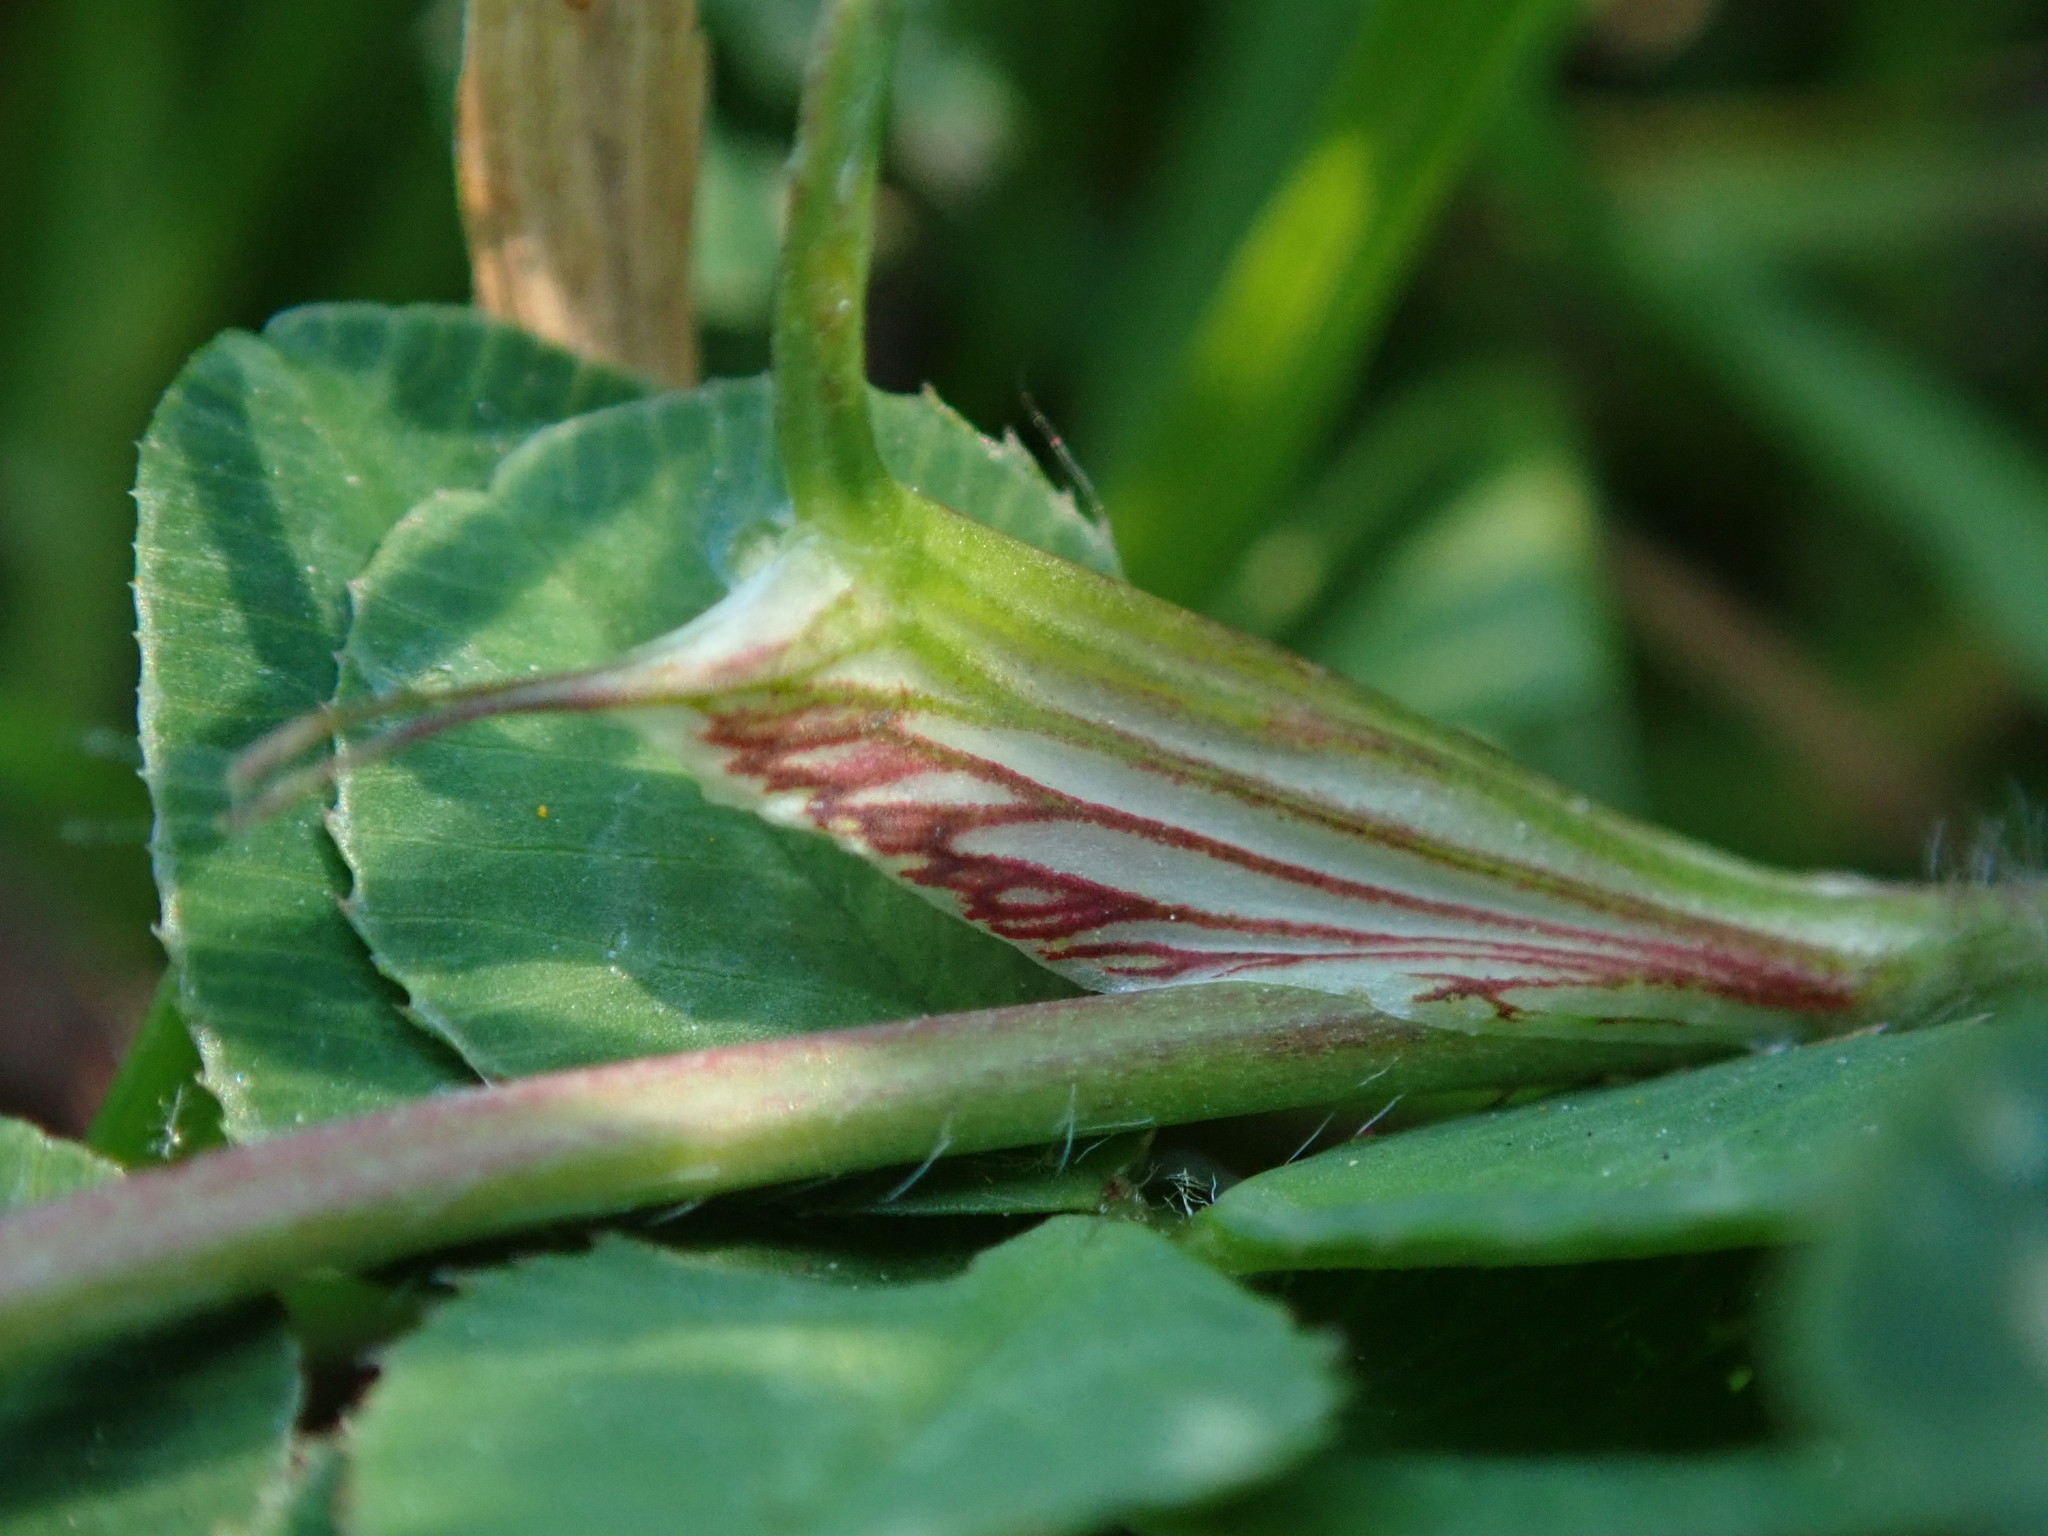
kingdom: Plantae
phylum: Tracheophyta
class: Magnoliopsida
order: Fabales
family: Fabaceae
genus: Trifolium
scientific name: Trifolium pratense
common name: Red clover
